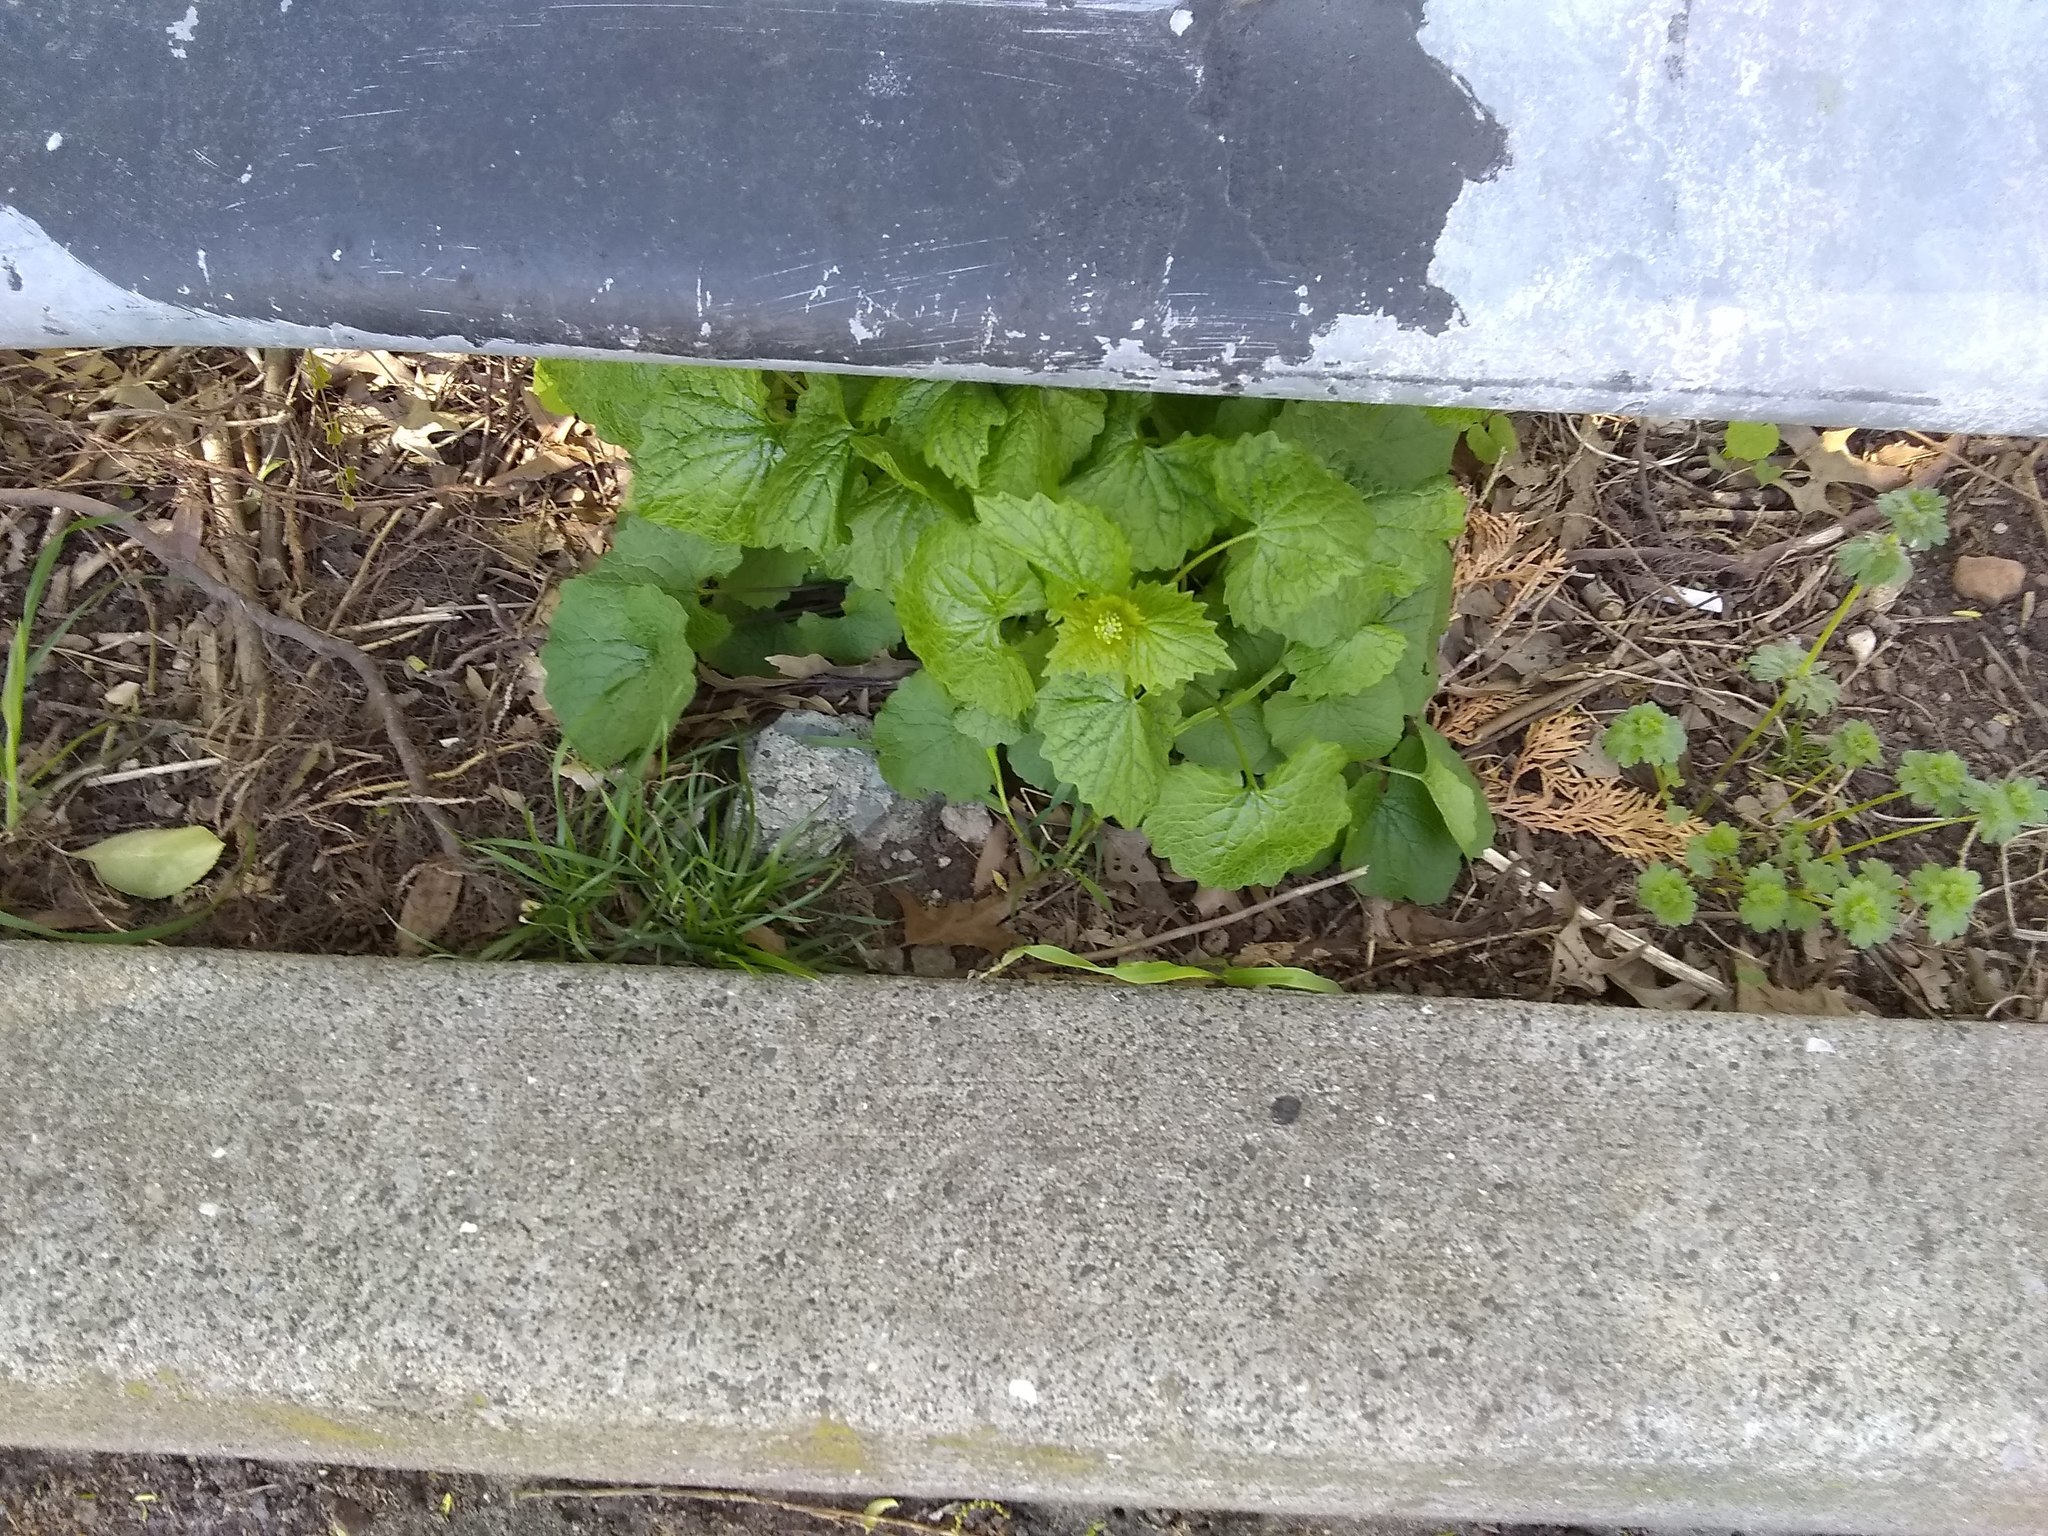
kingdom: Plantae
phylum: Tracheophyta
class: Magnoliopsida
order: Brassicales
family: Brassicaceae
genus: Alliaria
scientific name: Alliaria petiolata
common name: Garlic mustard
